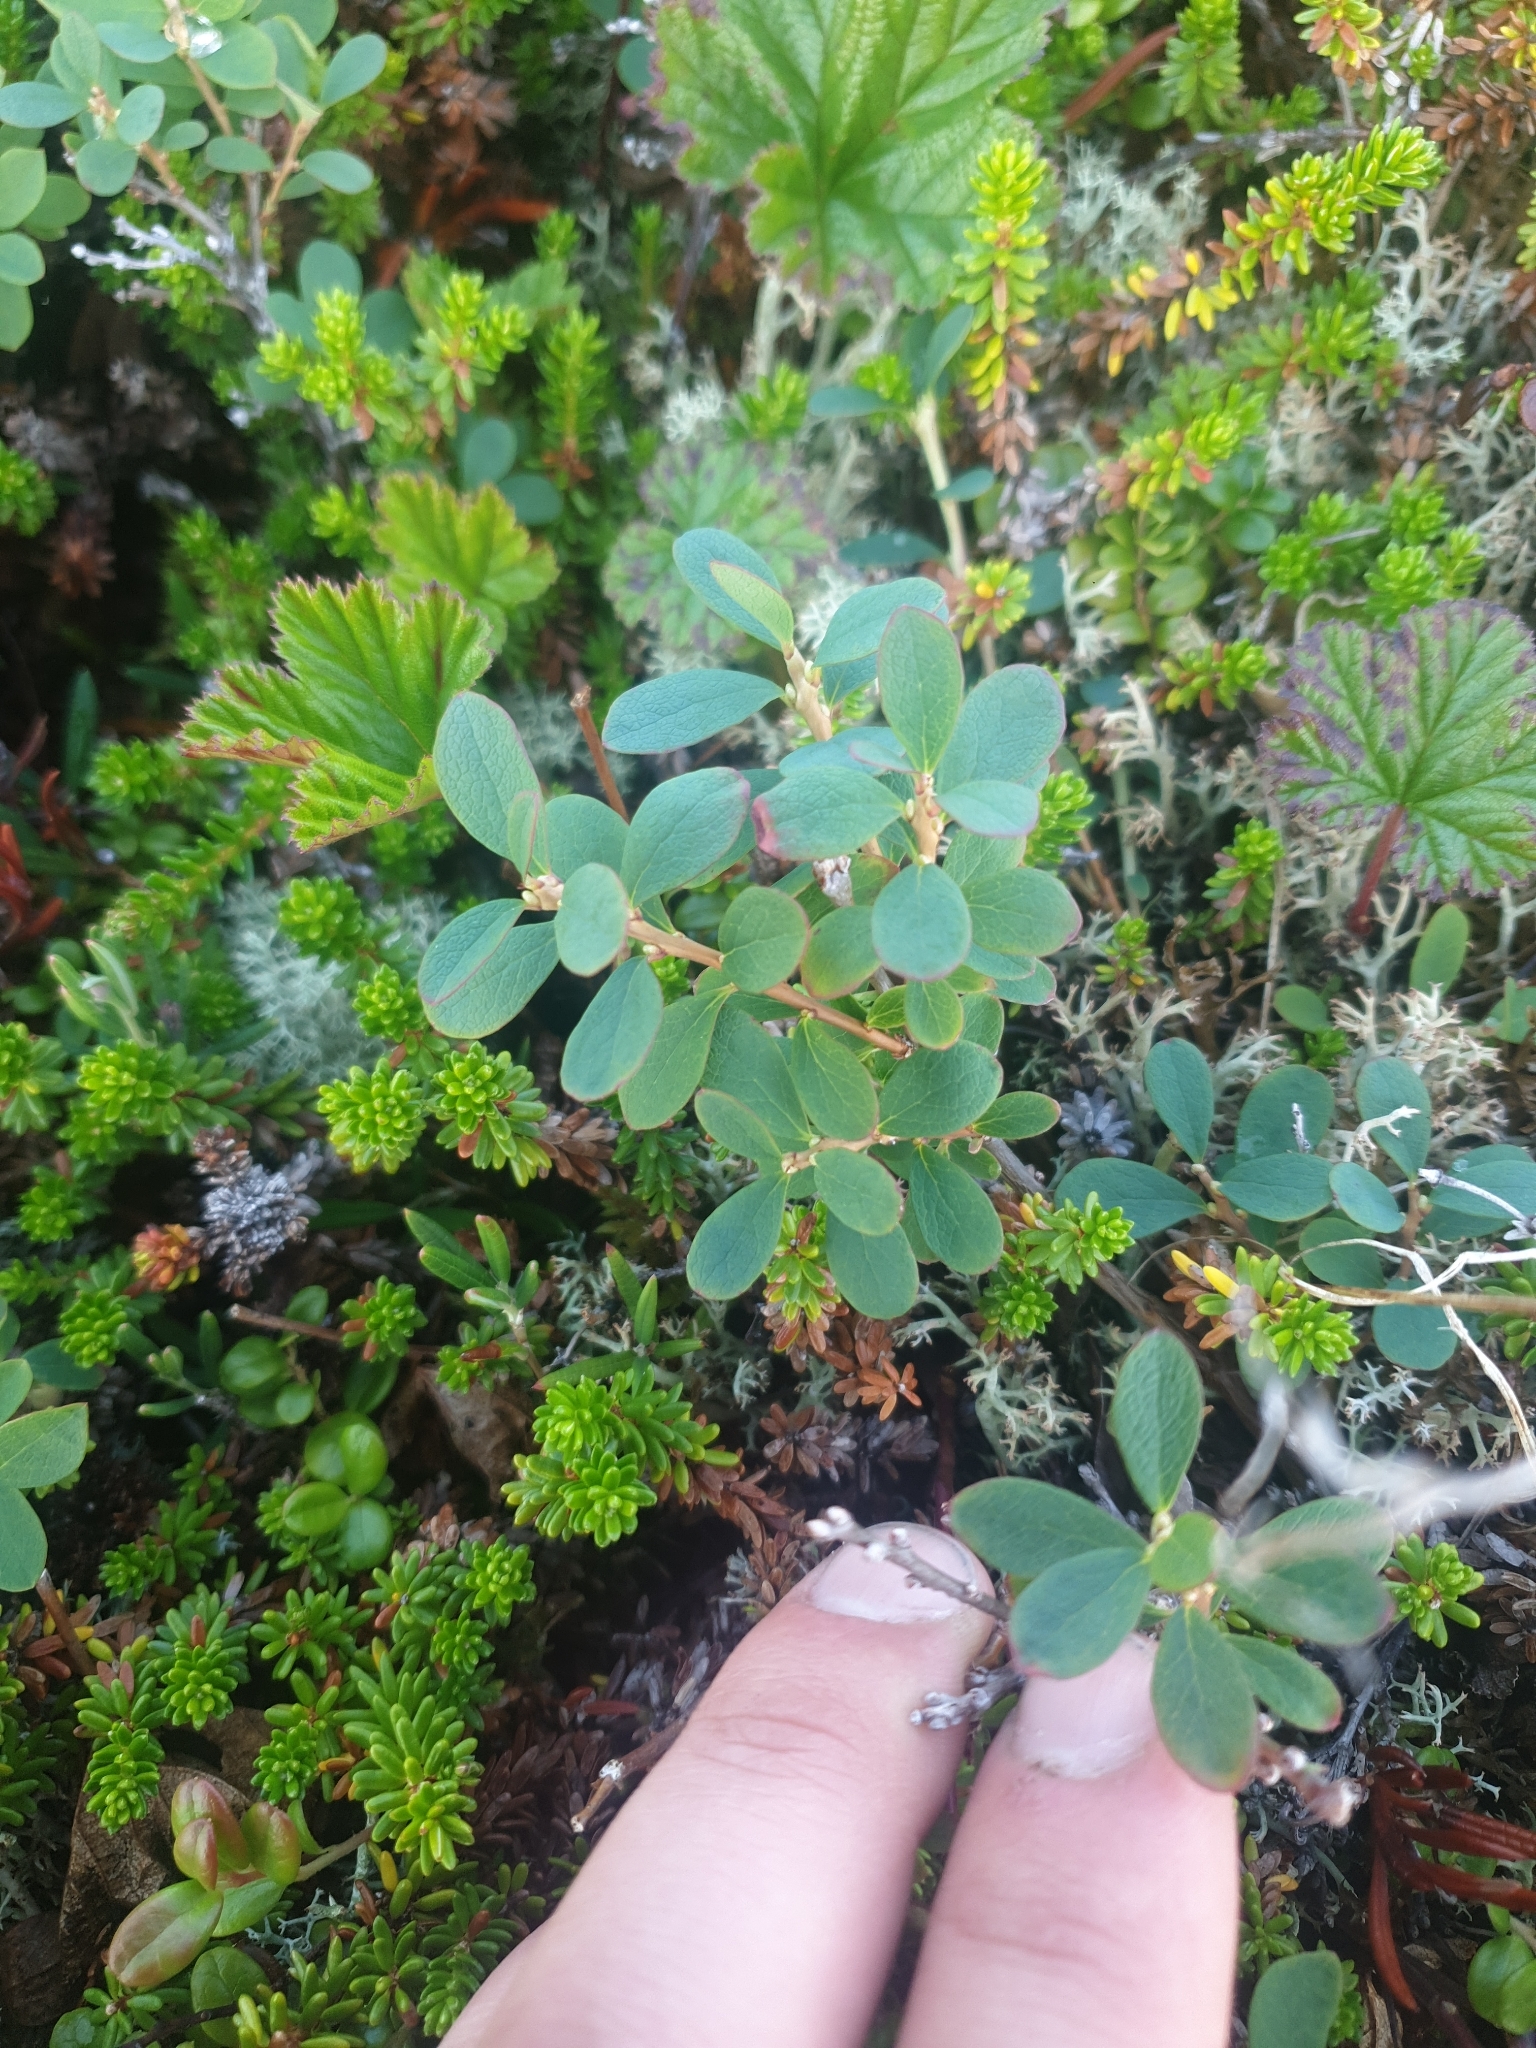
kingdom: Plantae
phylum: Tracheophyta
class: Magnoliopsida
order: Ericales
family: Ericaceae
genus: Vaccinium
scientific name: Vaccinium uliginosum
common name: Bog bilberry
